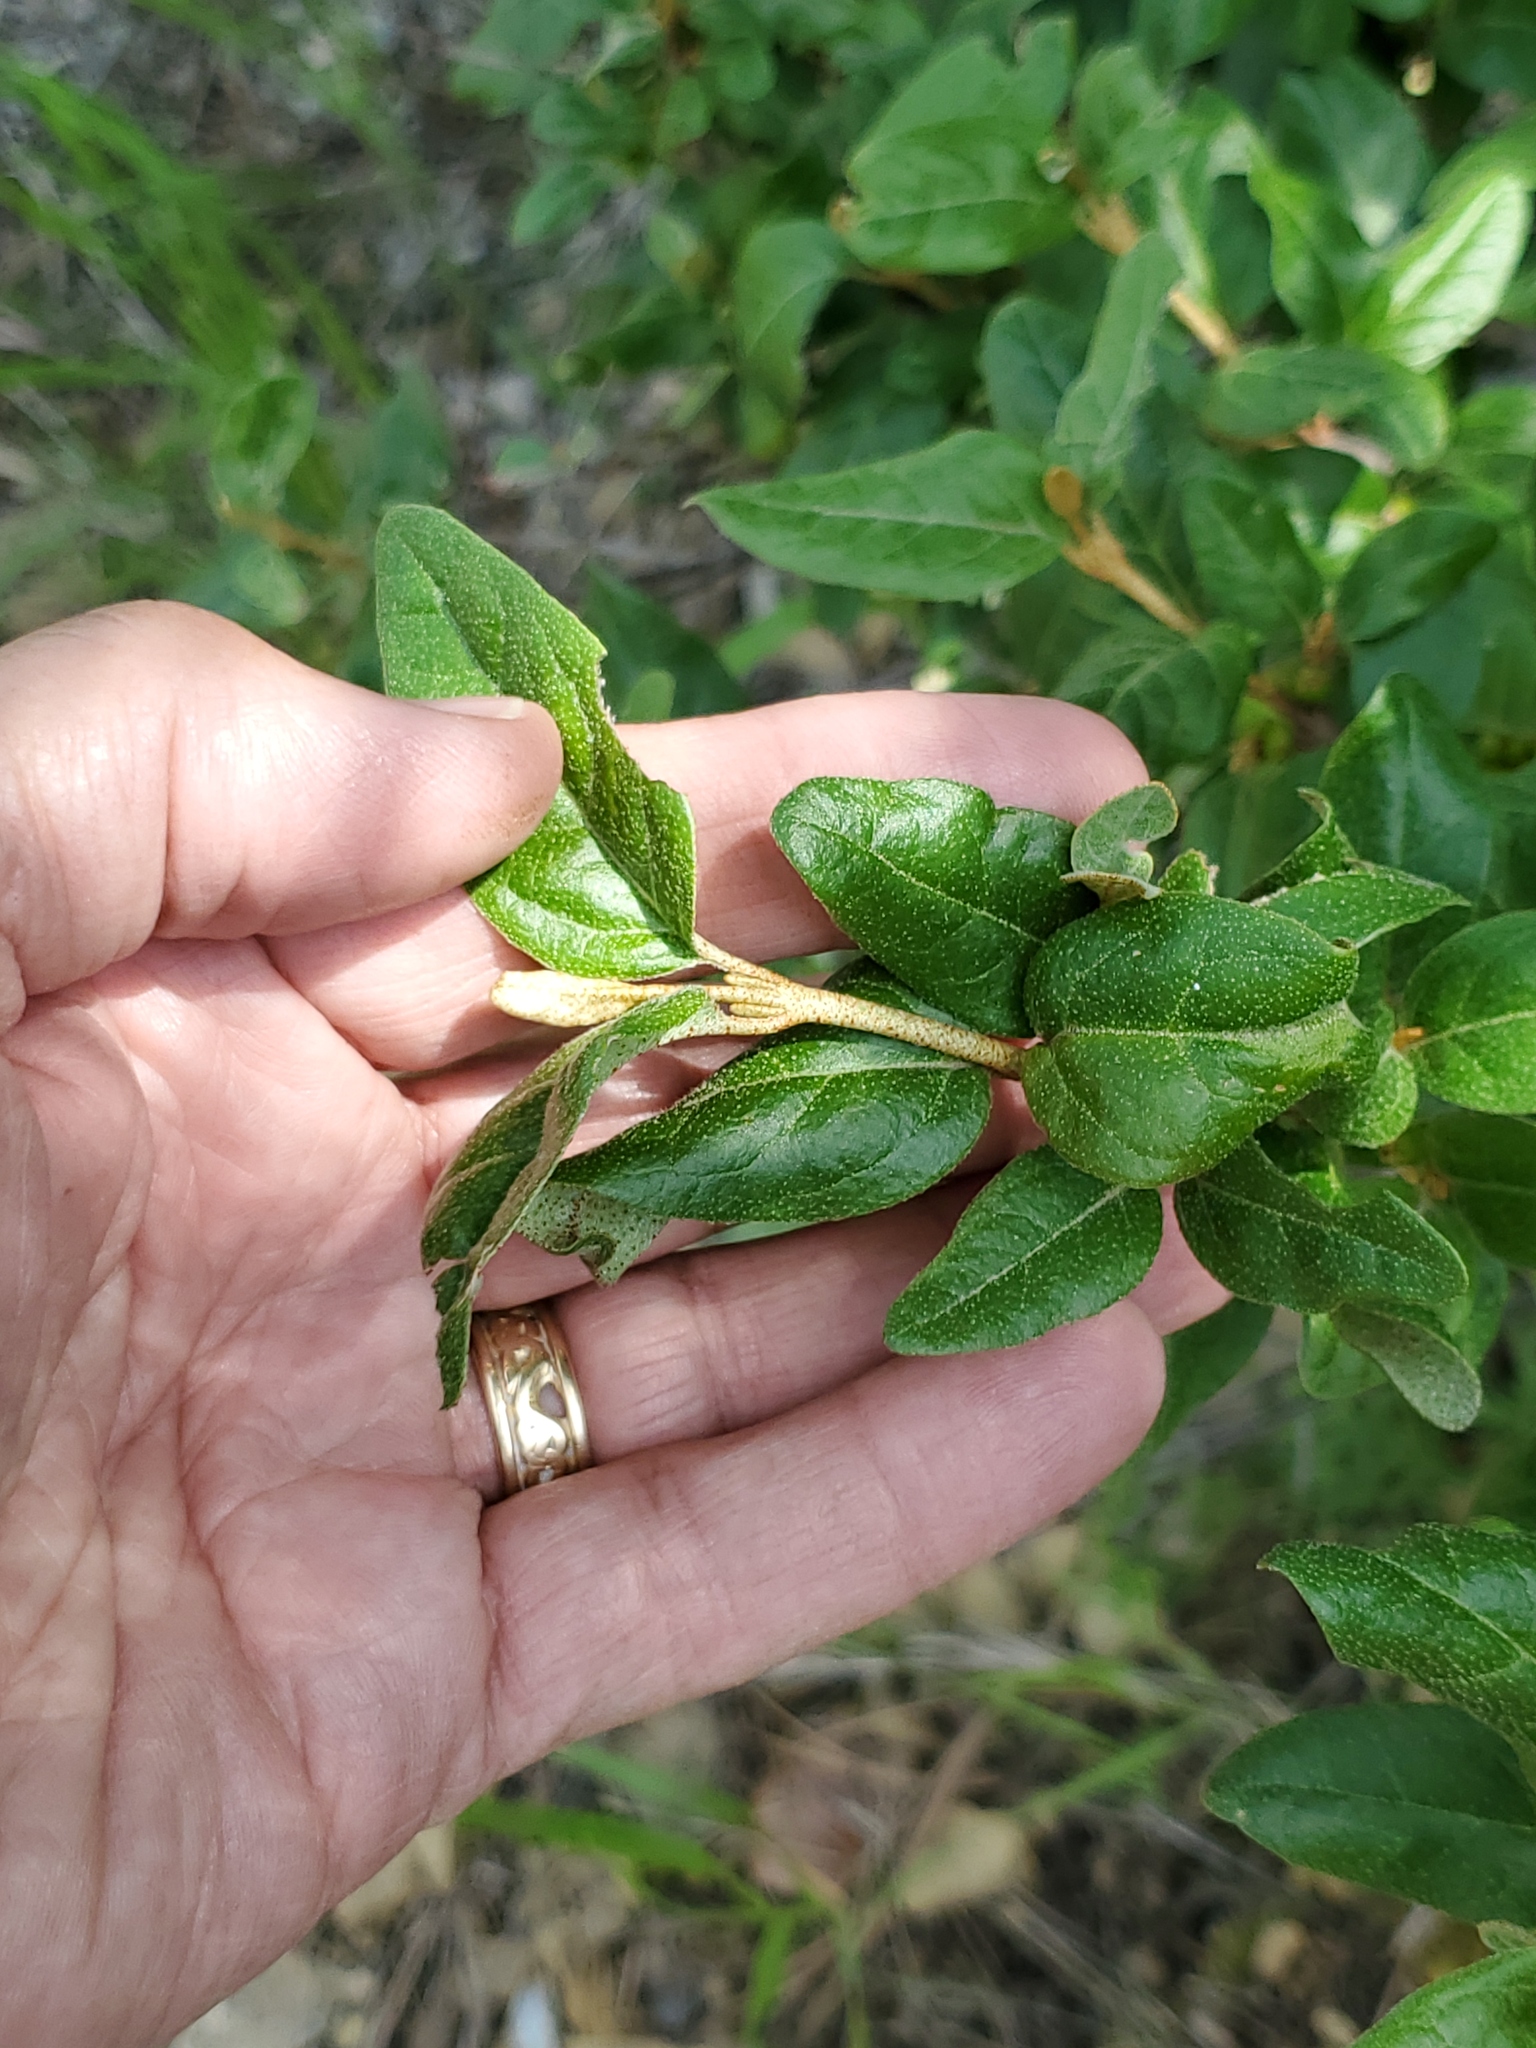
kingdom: Plantae
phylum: Tracheophyta
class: Magnoliopsida
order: Rosales
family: Elaeagnaceae
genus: Shepherdia
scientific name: Shepherdia canadensis
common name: Soapberry
